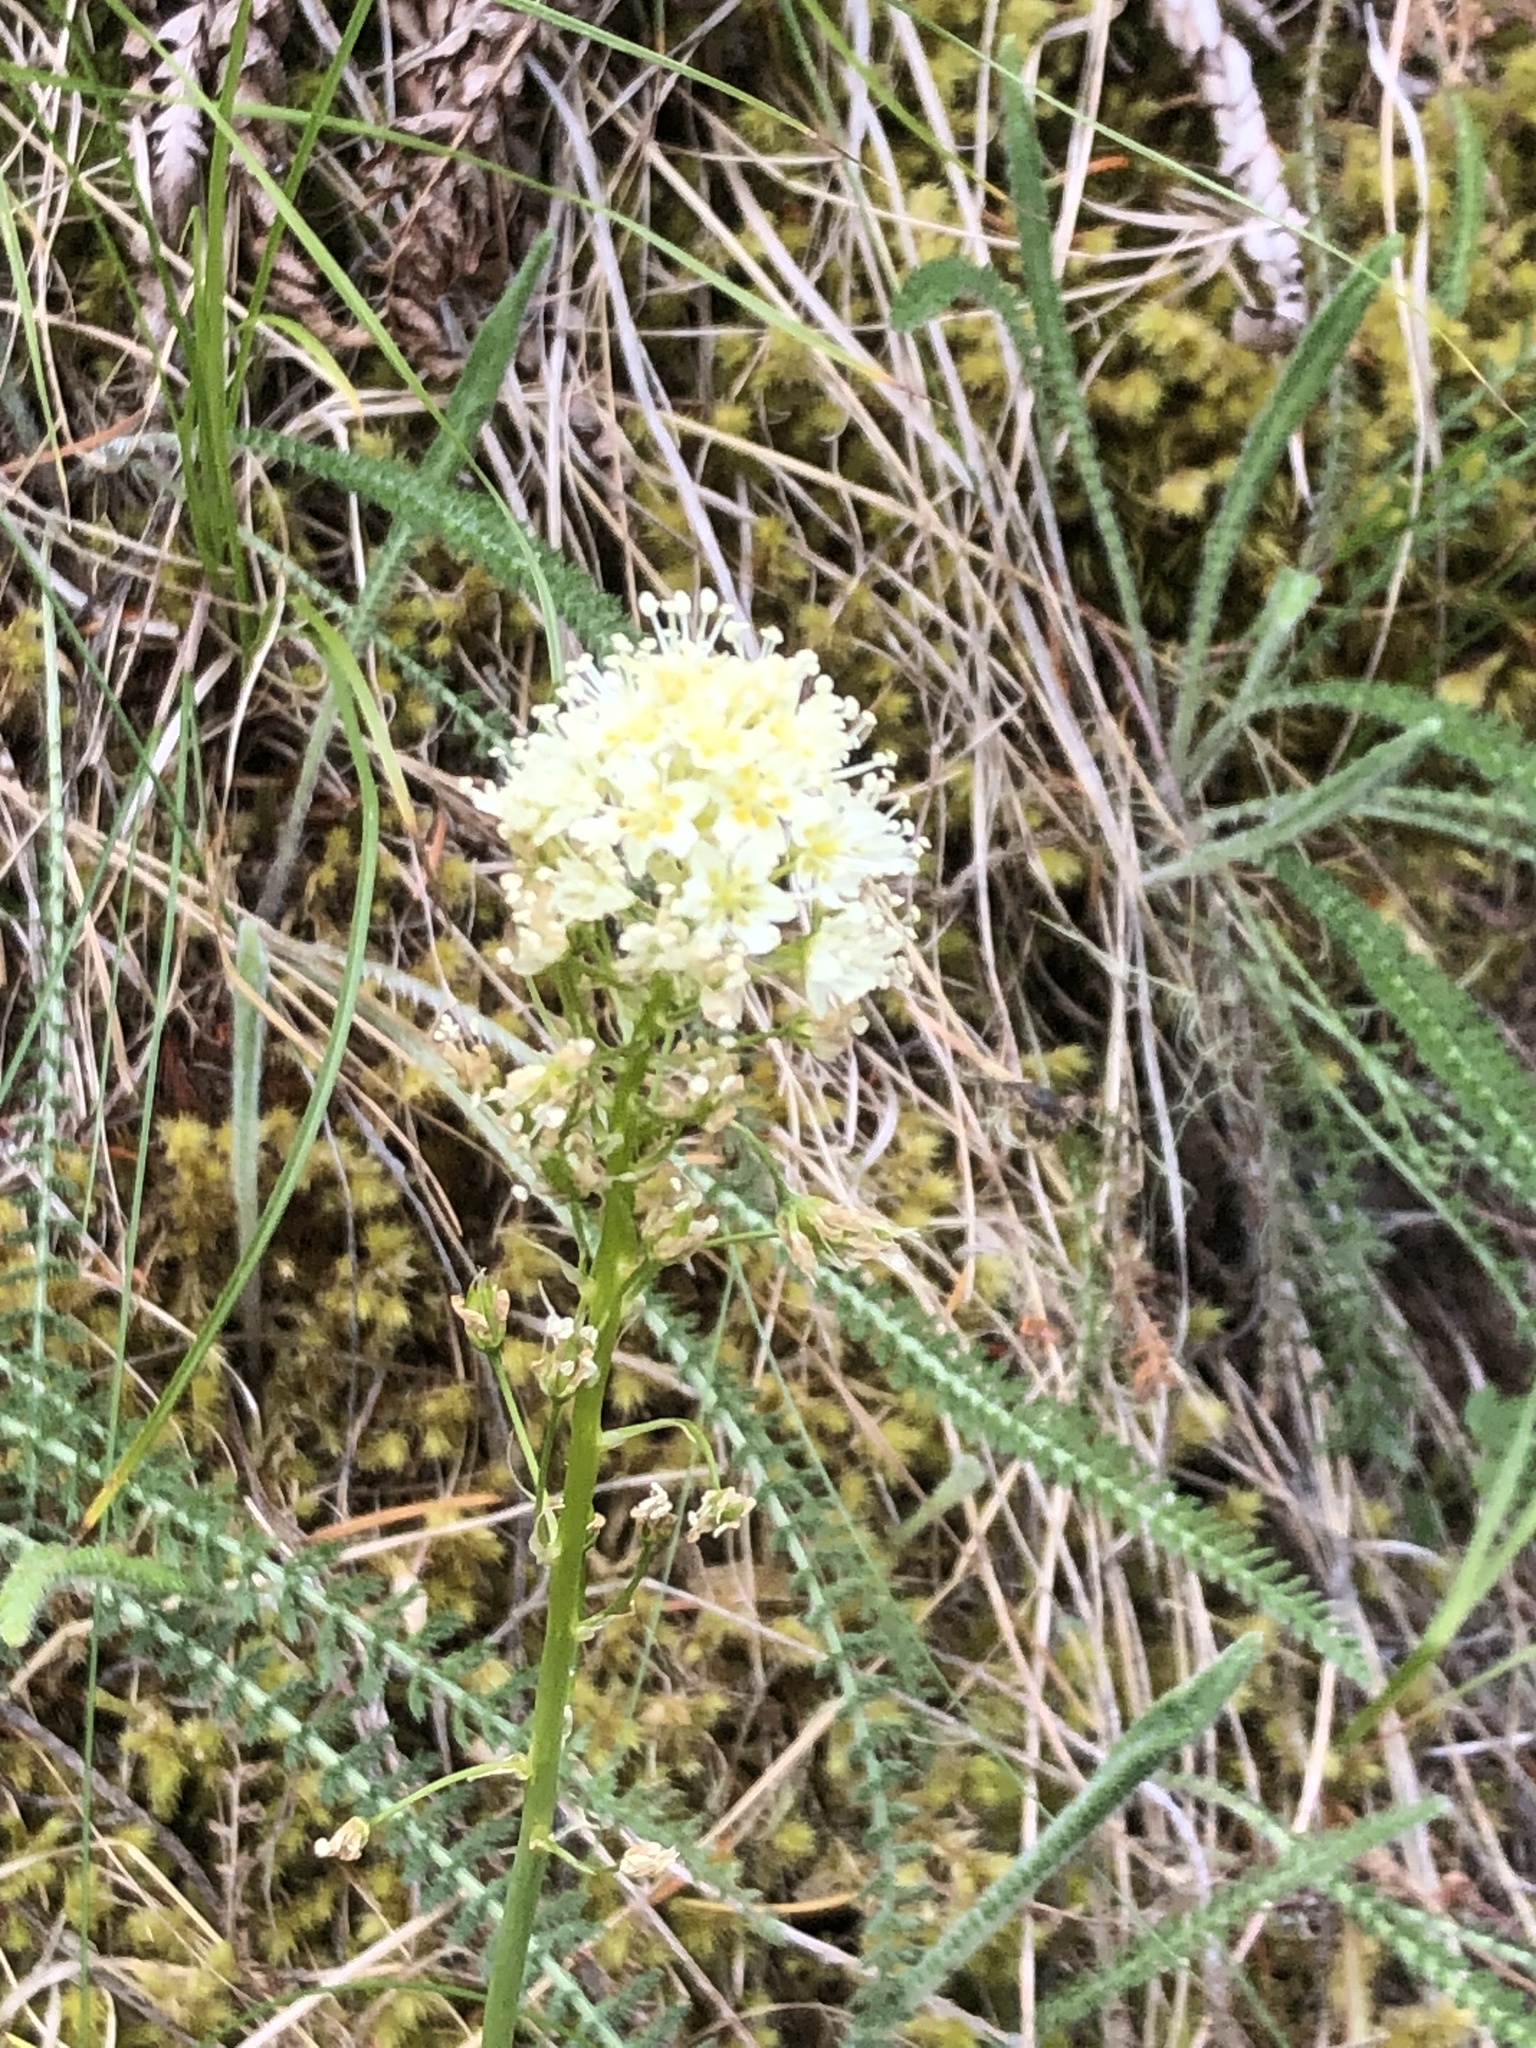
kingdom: Plantae
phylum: Tracheophyta
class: Liliopsida
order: Liliales
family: Melanthiaceae
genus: Toxicoscordion
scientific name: Toxicoscordion venenosum
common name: Meadow death camas
